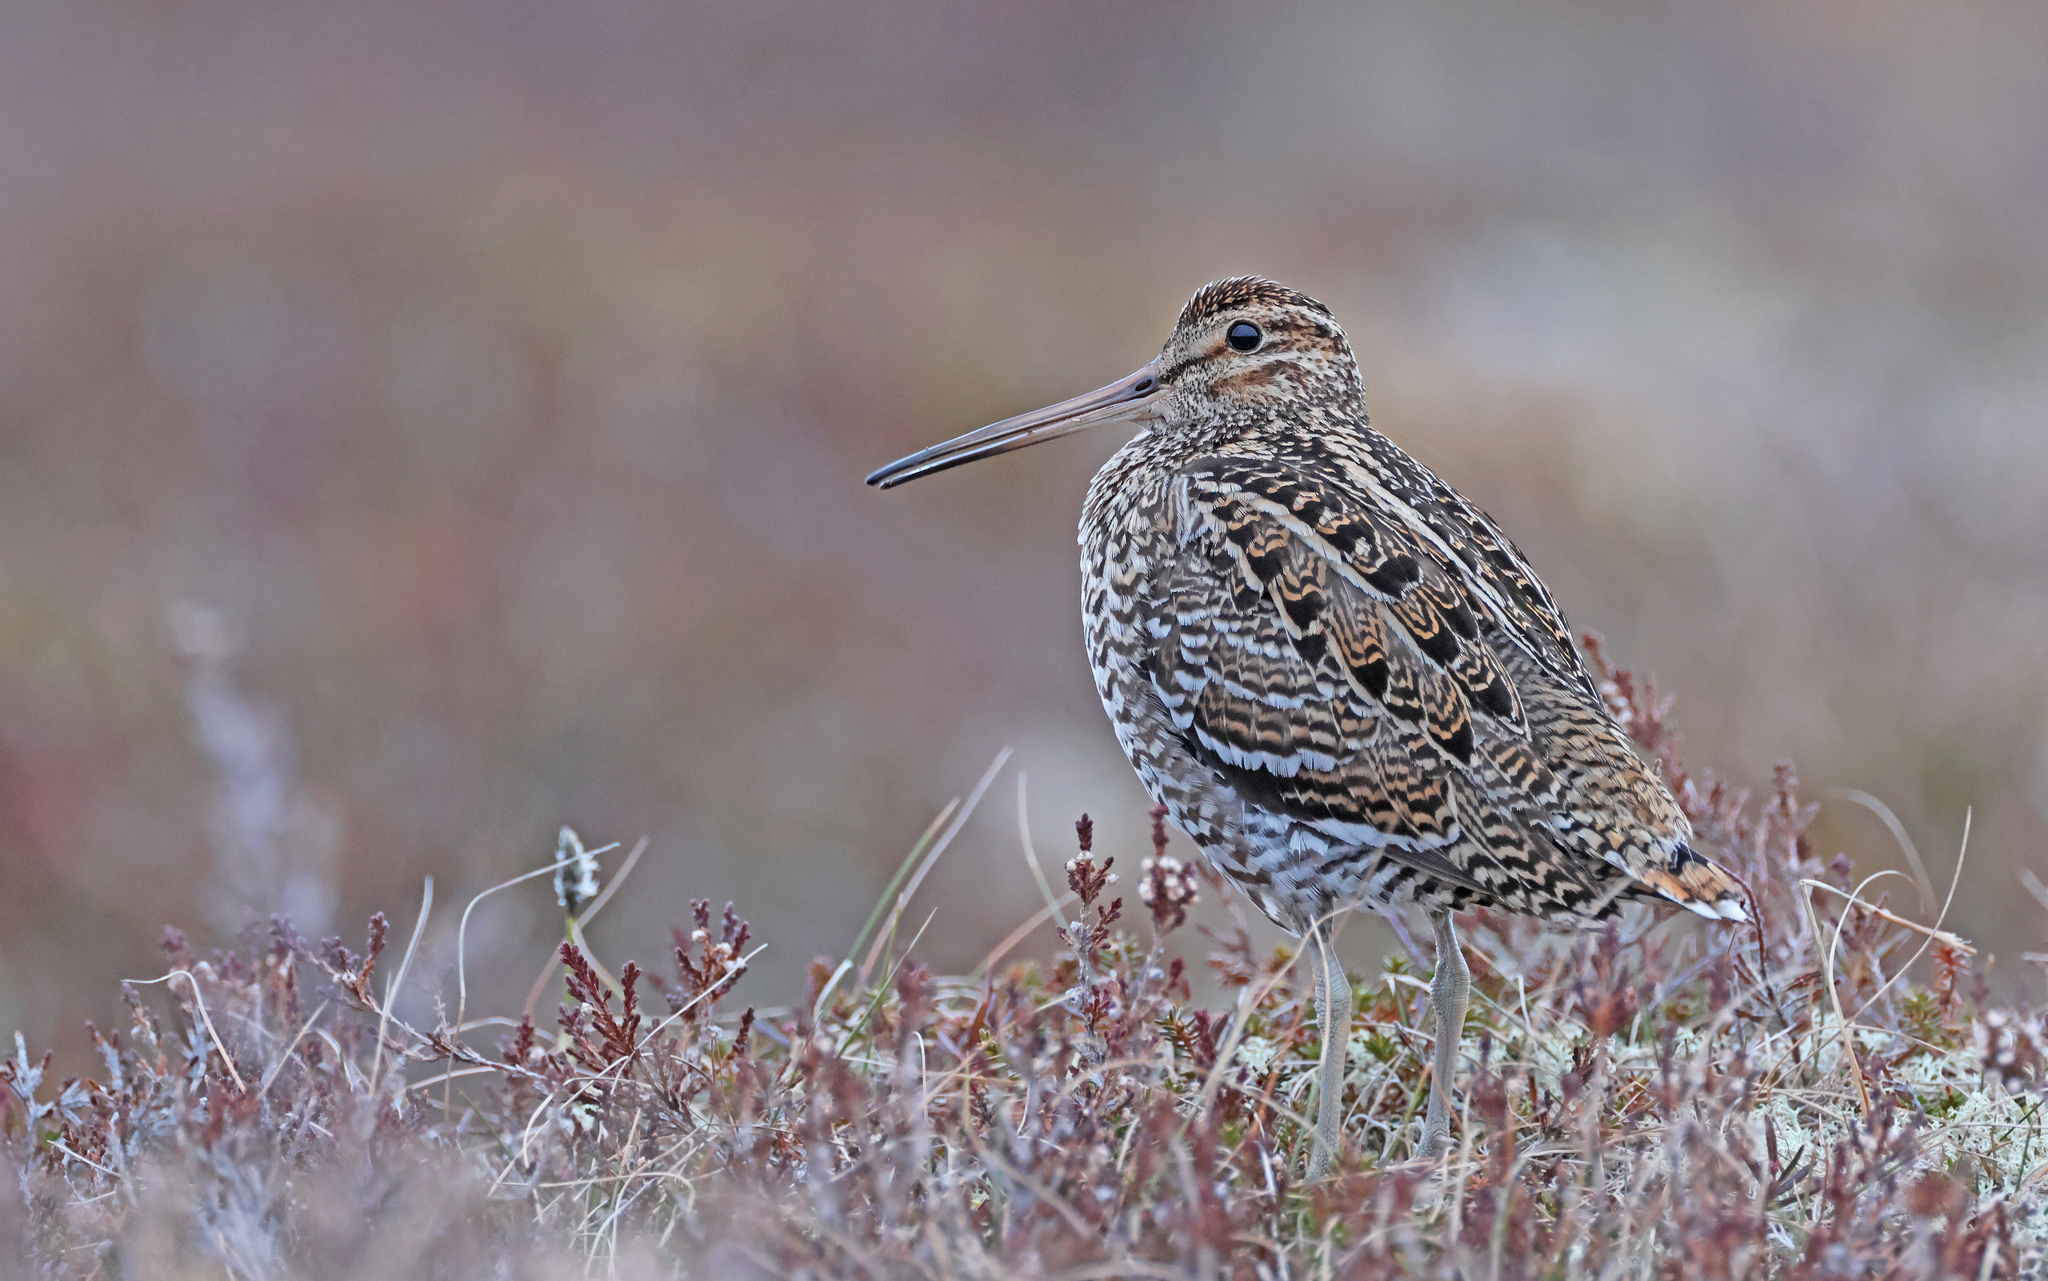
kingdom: Animalia
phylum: Chordata
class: Aves
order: Charadriiformes
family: Scolopacidae
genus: Gallinago
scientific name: Gallinago media
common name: Great snipe
